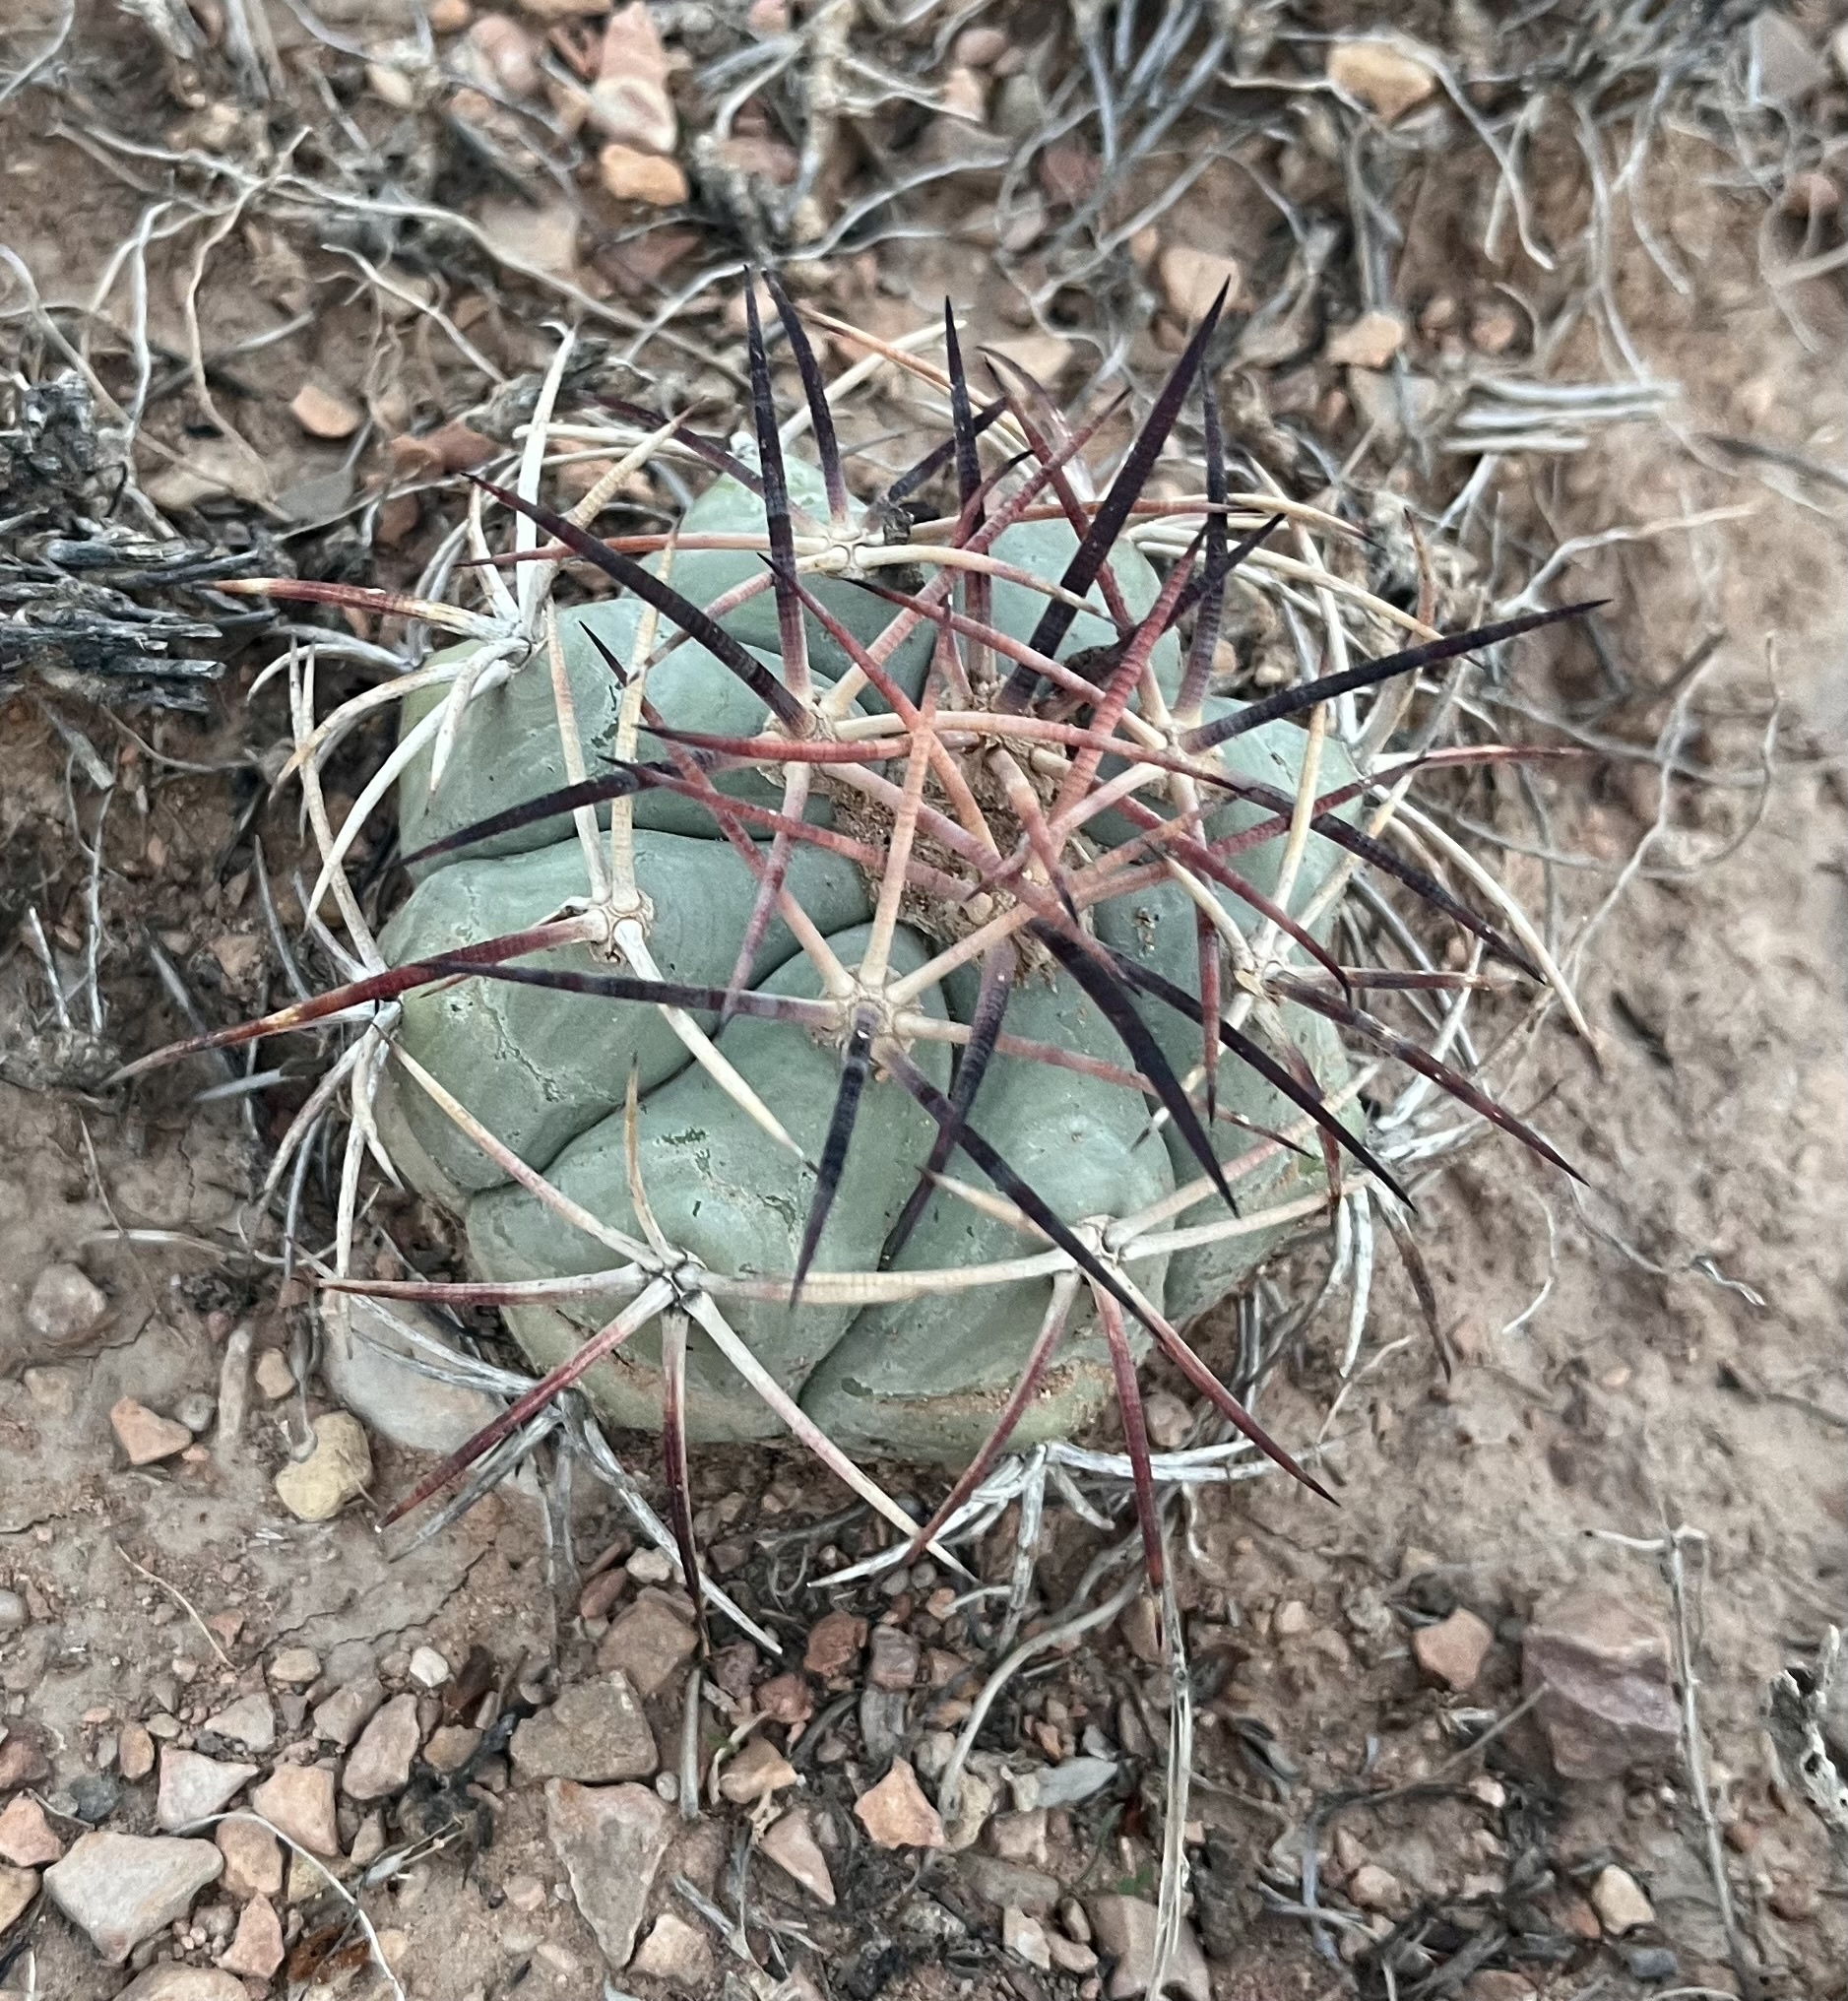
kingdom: Plantae
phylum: Tracheophyta
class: Magnoliopsida
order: Caryophyllales
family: Cactaceae
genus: Echinocactus
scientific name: Echinocactus horizonthalonius
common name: Devilshead
